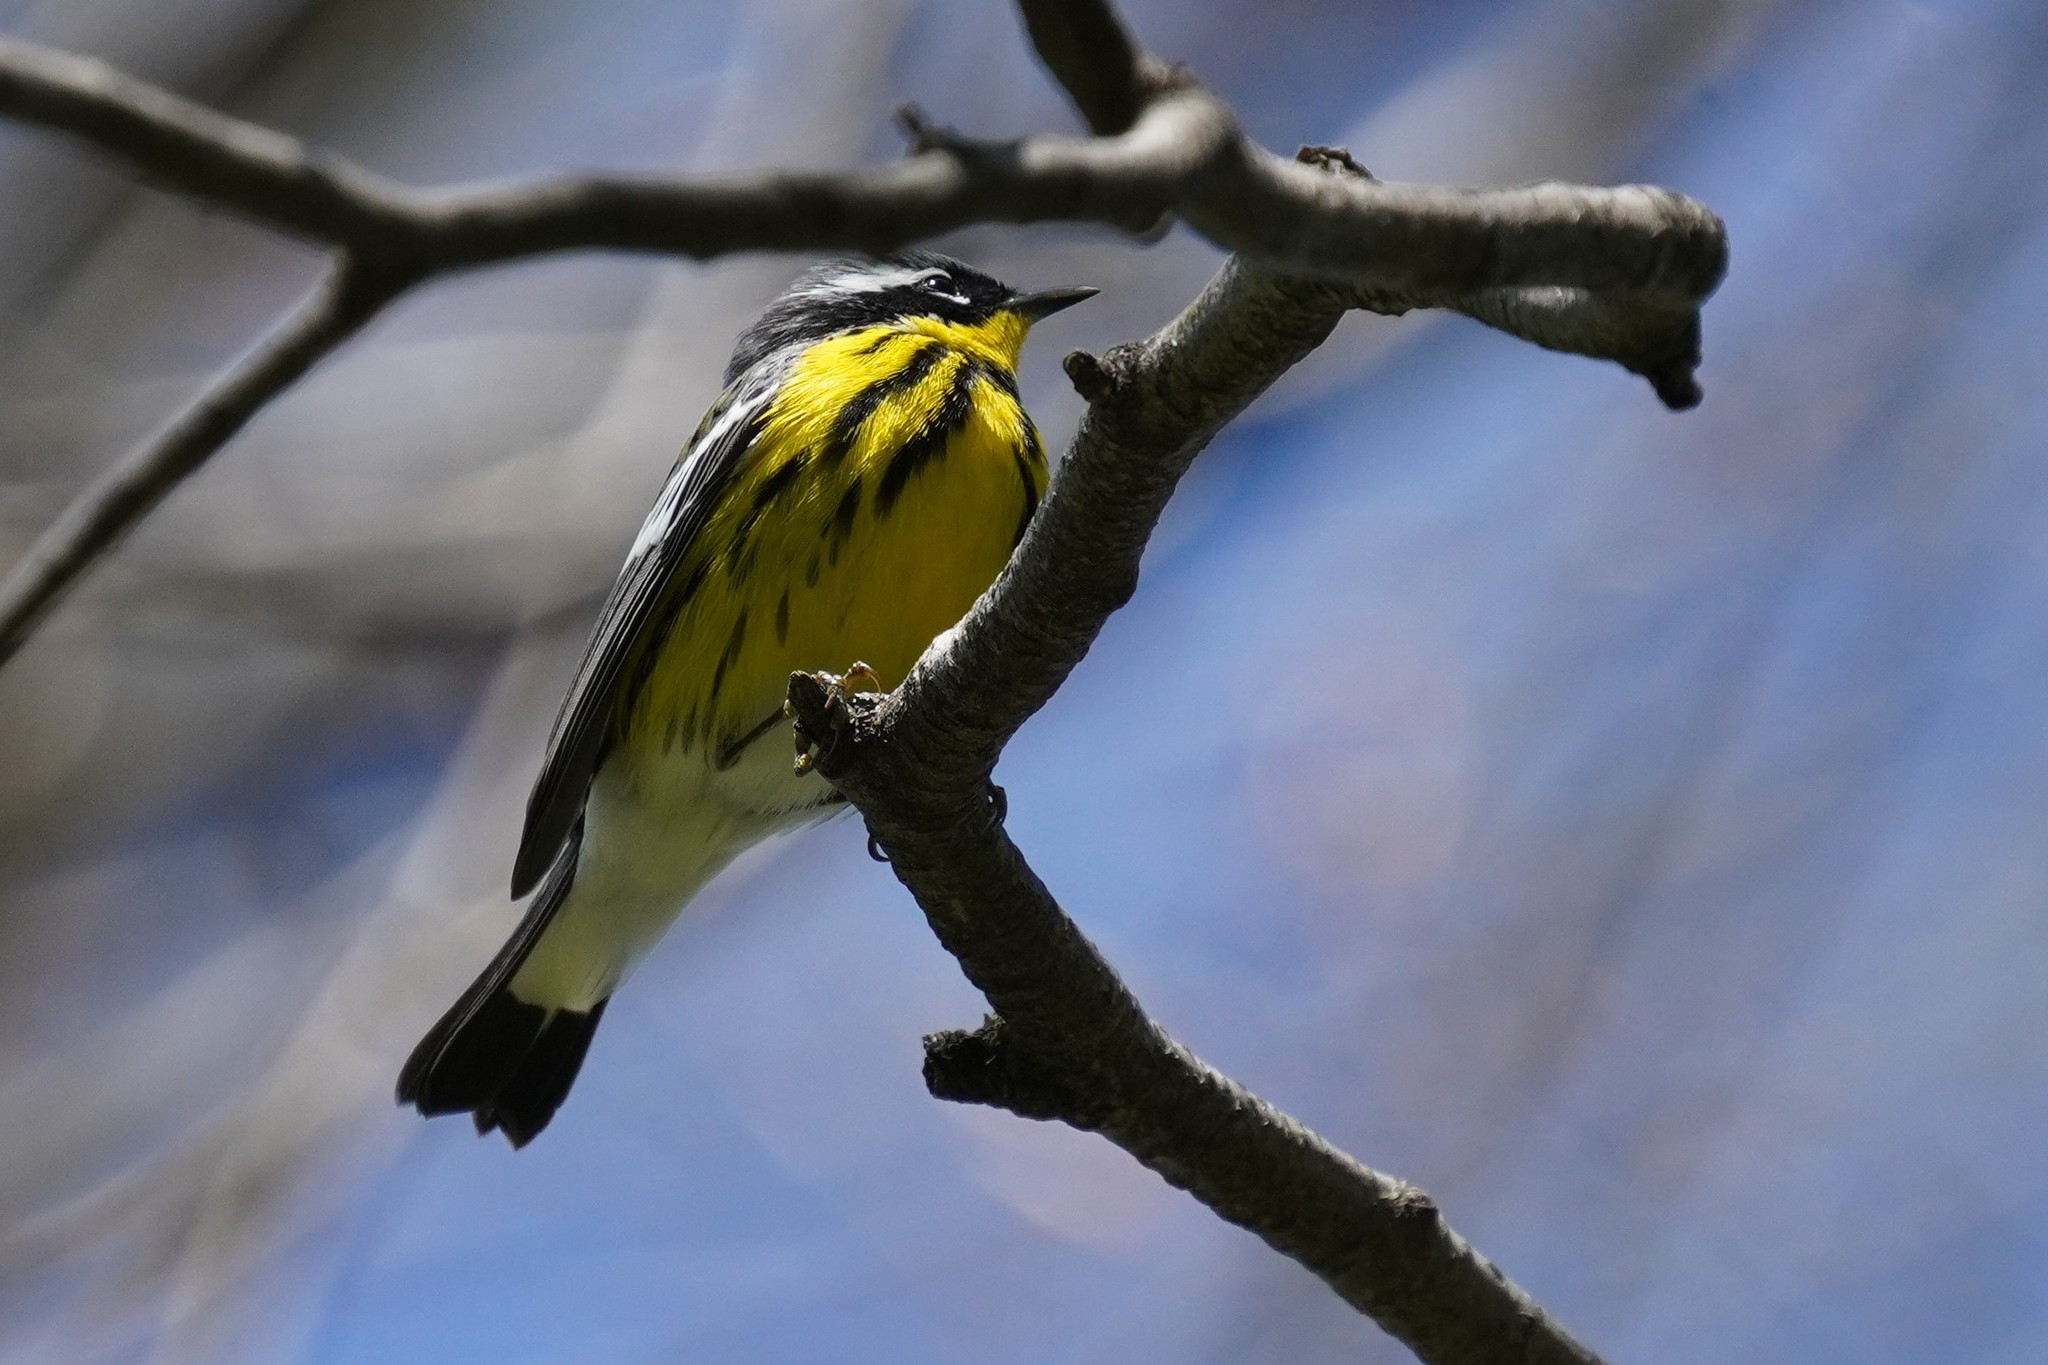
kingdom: Animalia
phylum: Chordata
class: Aves
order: Passeriformes
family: Parulidae
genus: Setophaga
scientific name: Setophaga magnolia
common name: Magnolia warbler
